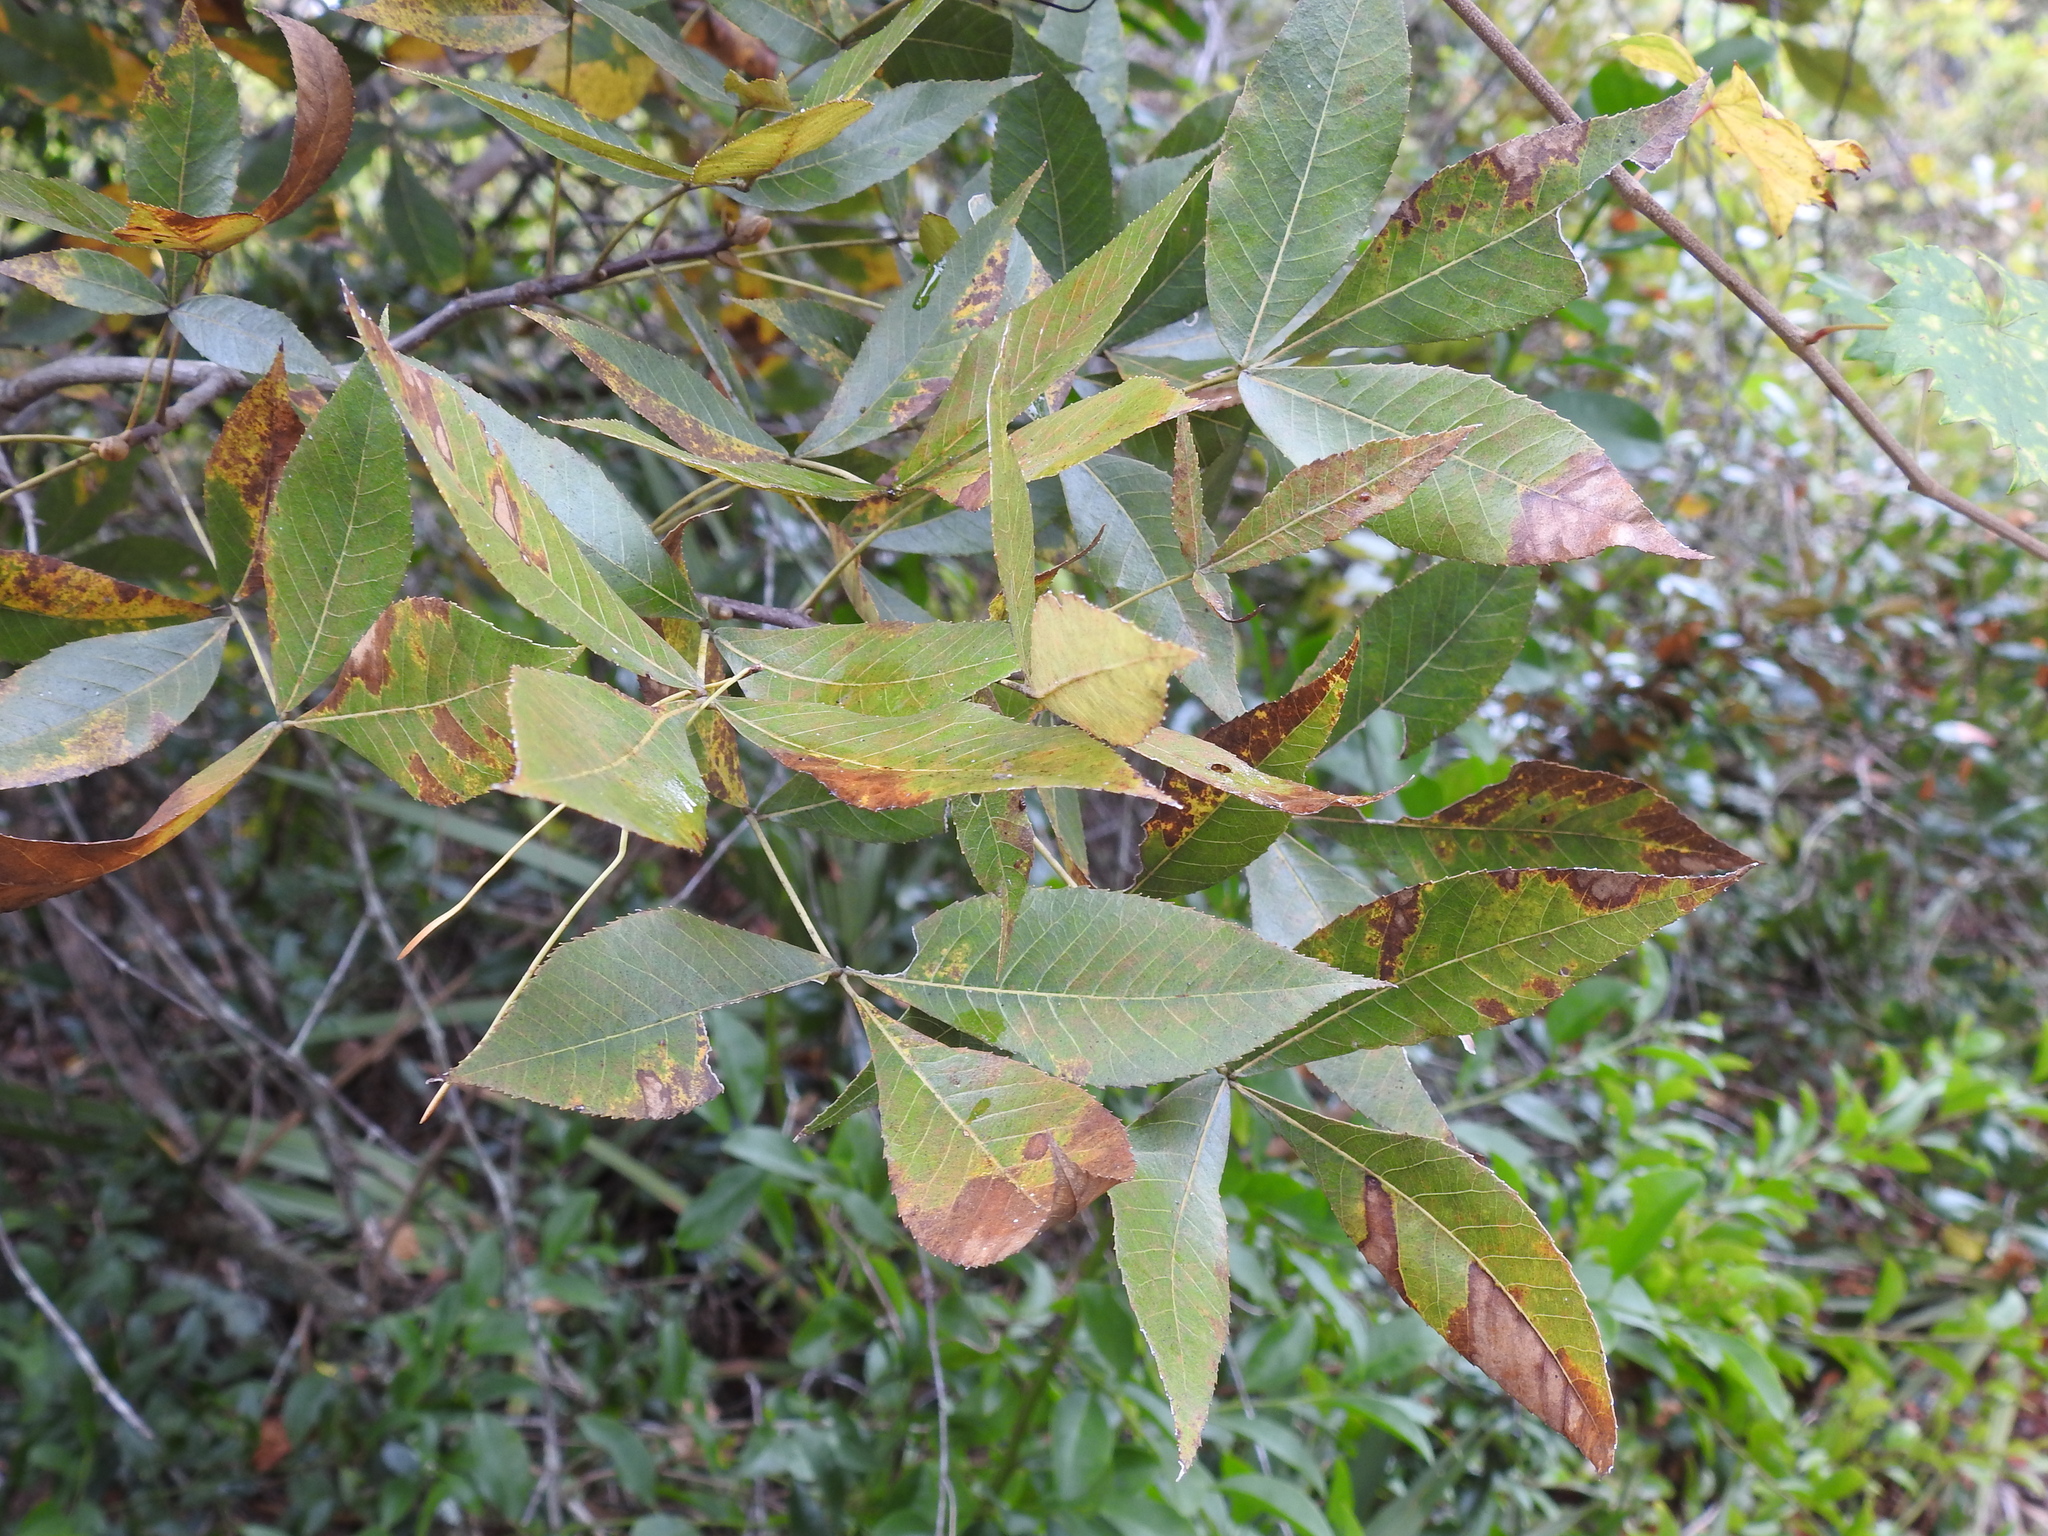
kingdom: Plantae
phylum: Tracheophyta
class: Magnoliopsida
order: Fagales
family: Juglandaceae
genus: Carya
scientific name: Carya floridana
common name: Scrub hickory
